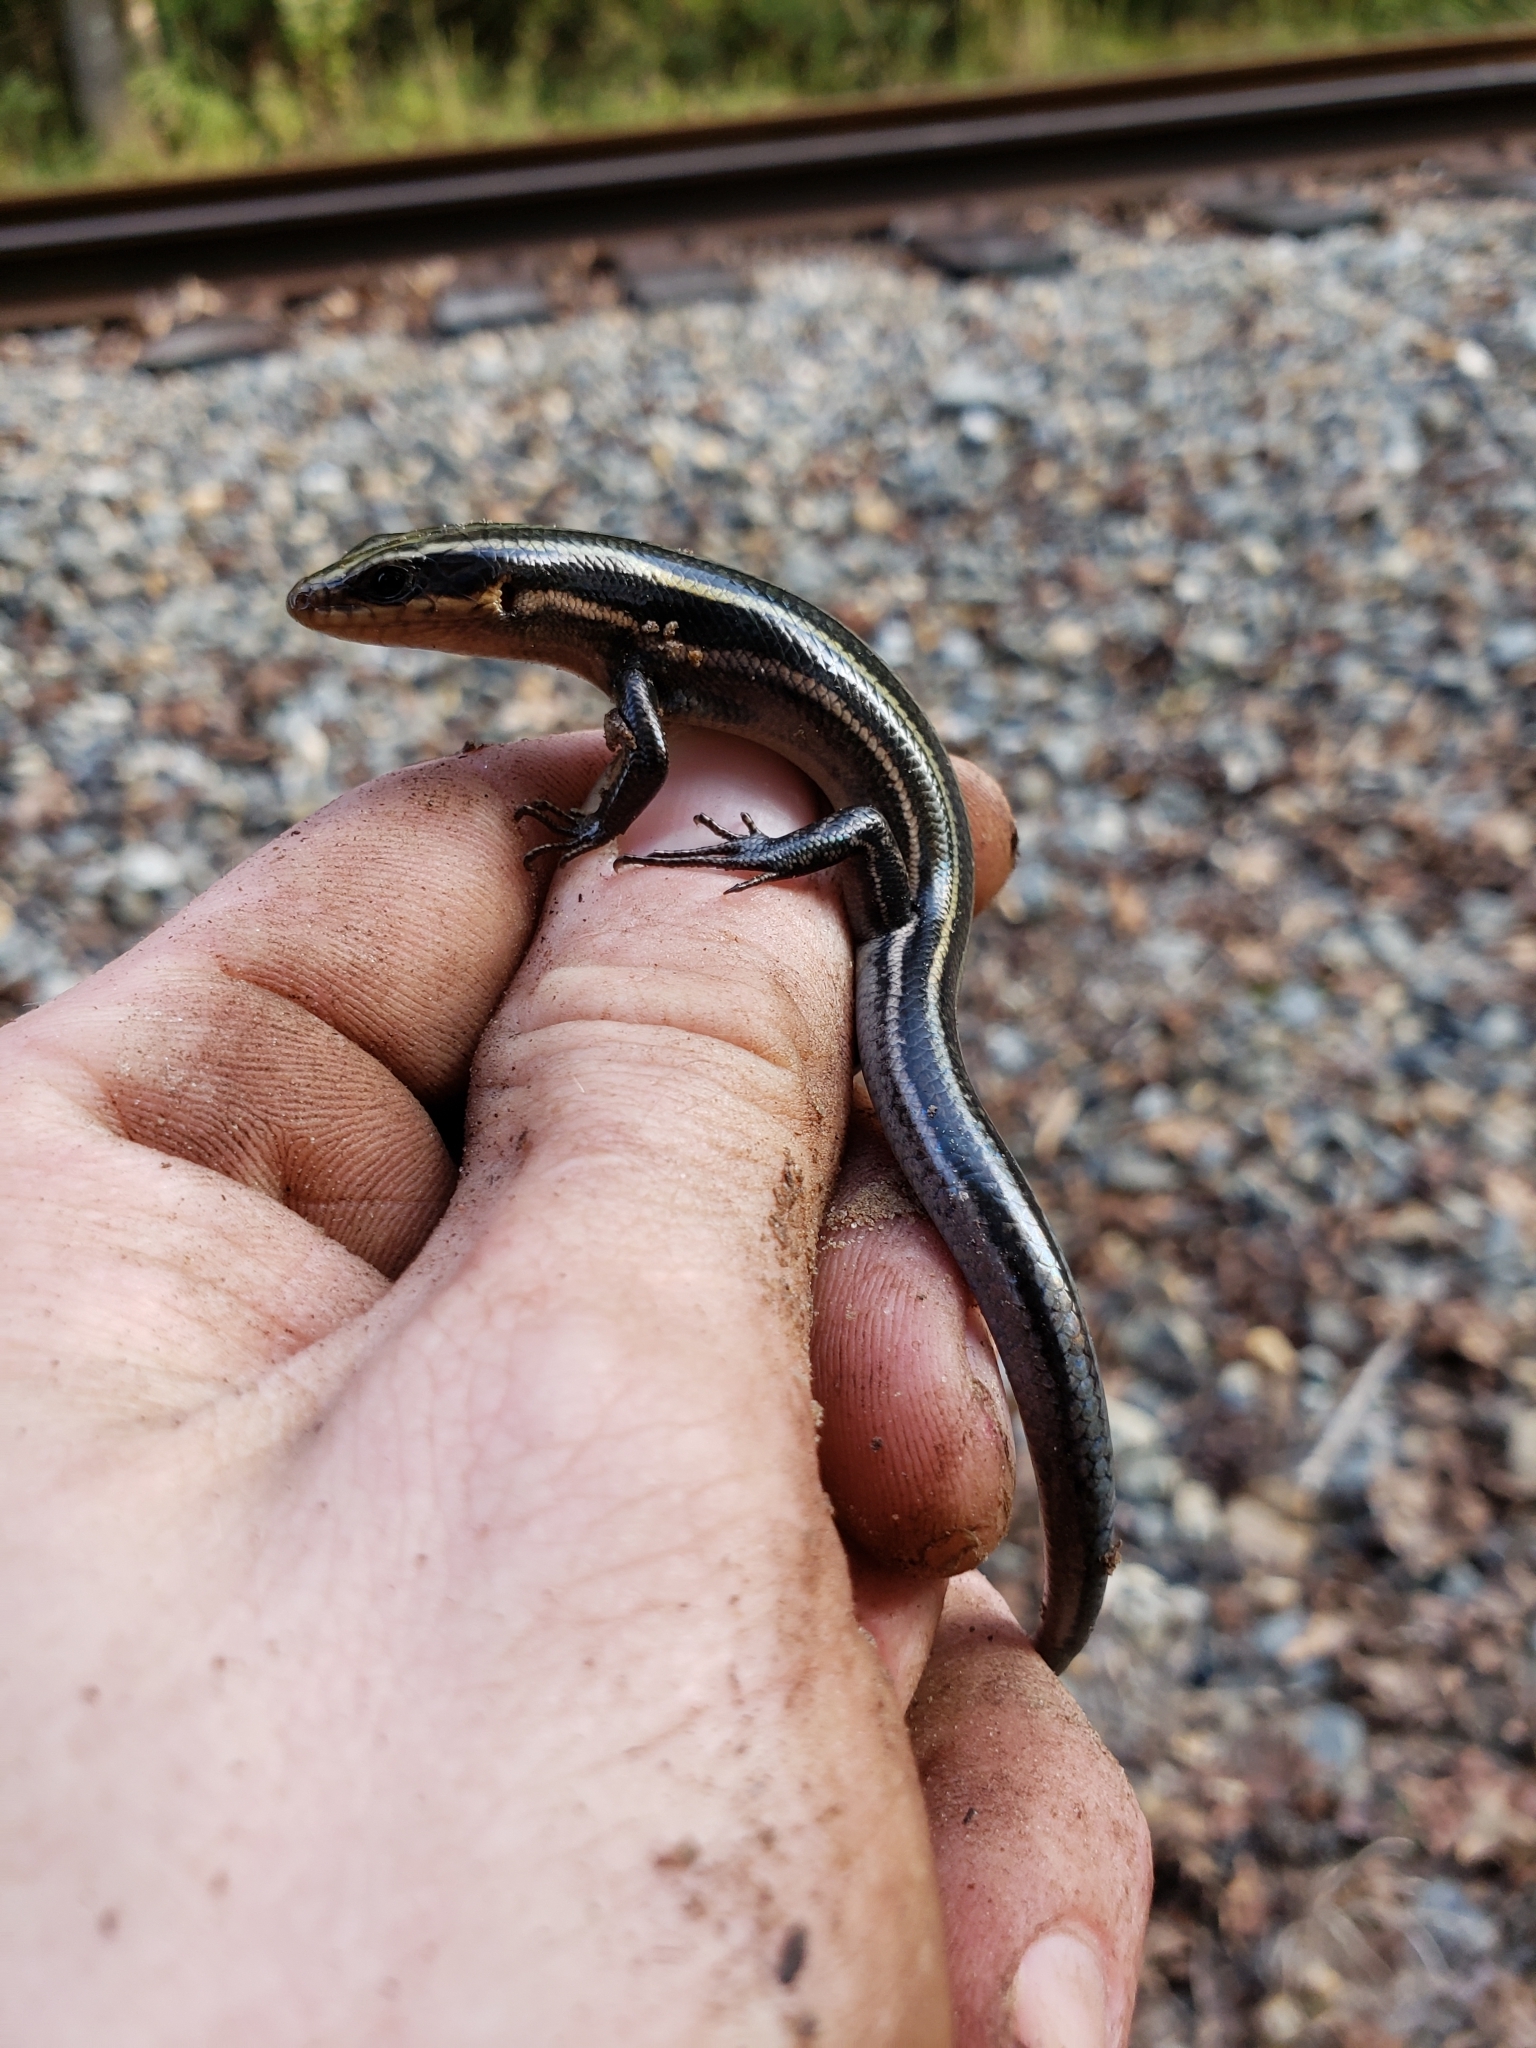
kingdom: Animalia
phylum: Chordata
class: Squamata
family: Scincidae
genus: Plestiodon
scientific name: Plestiodon fasciatus
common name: Five-lined skink
